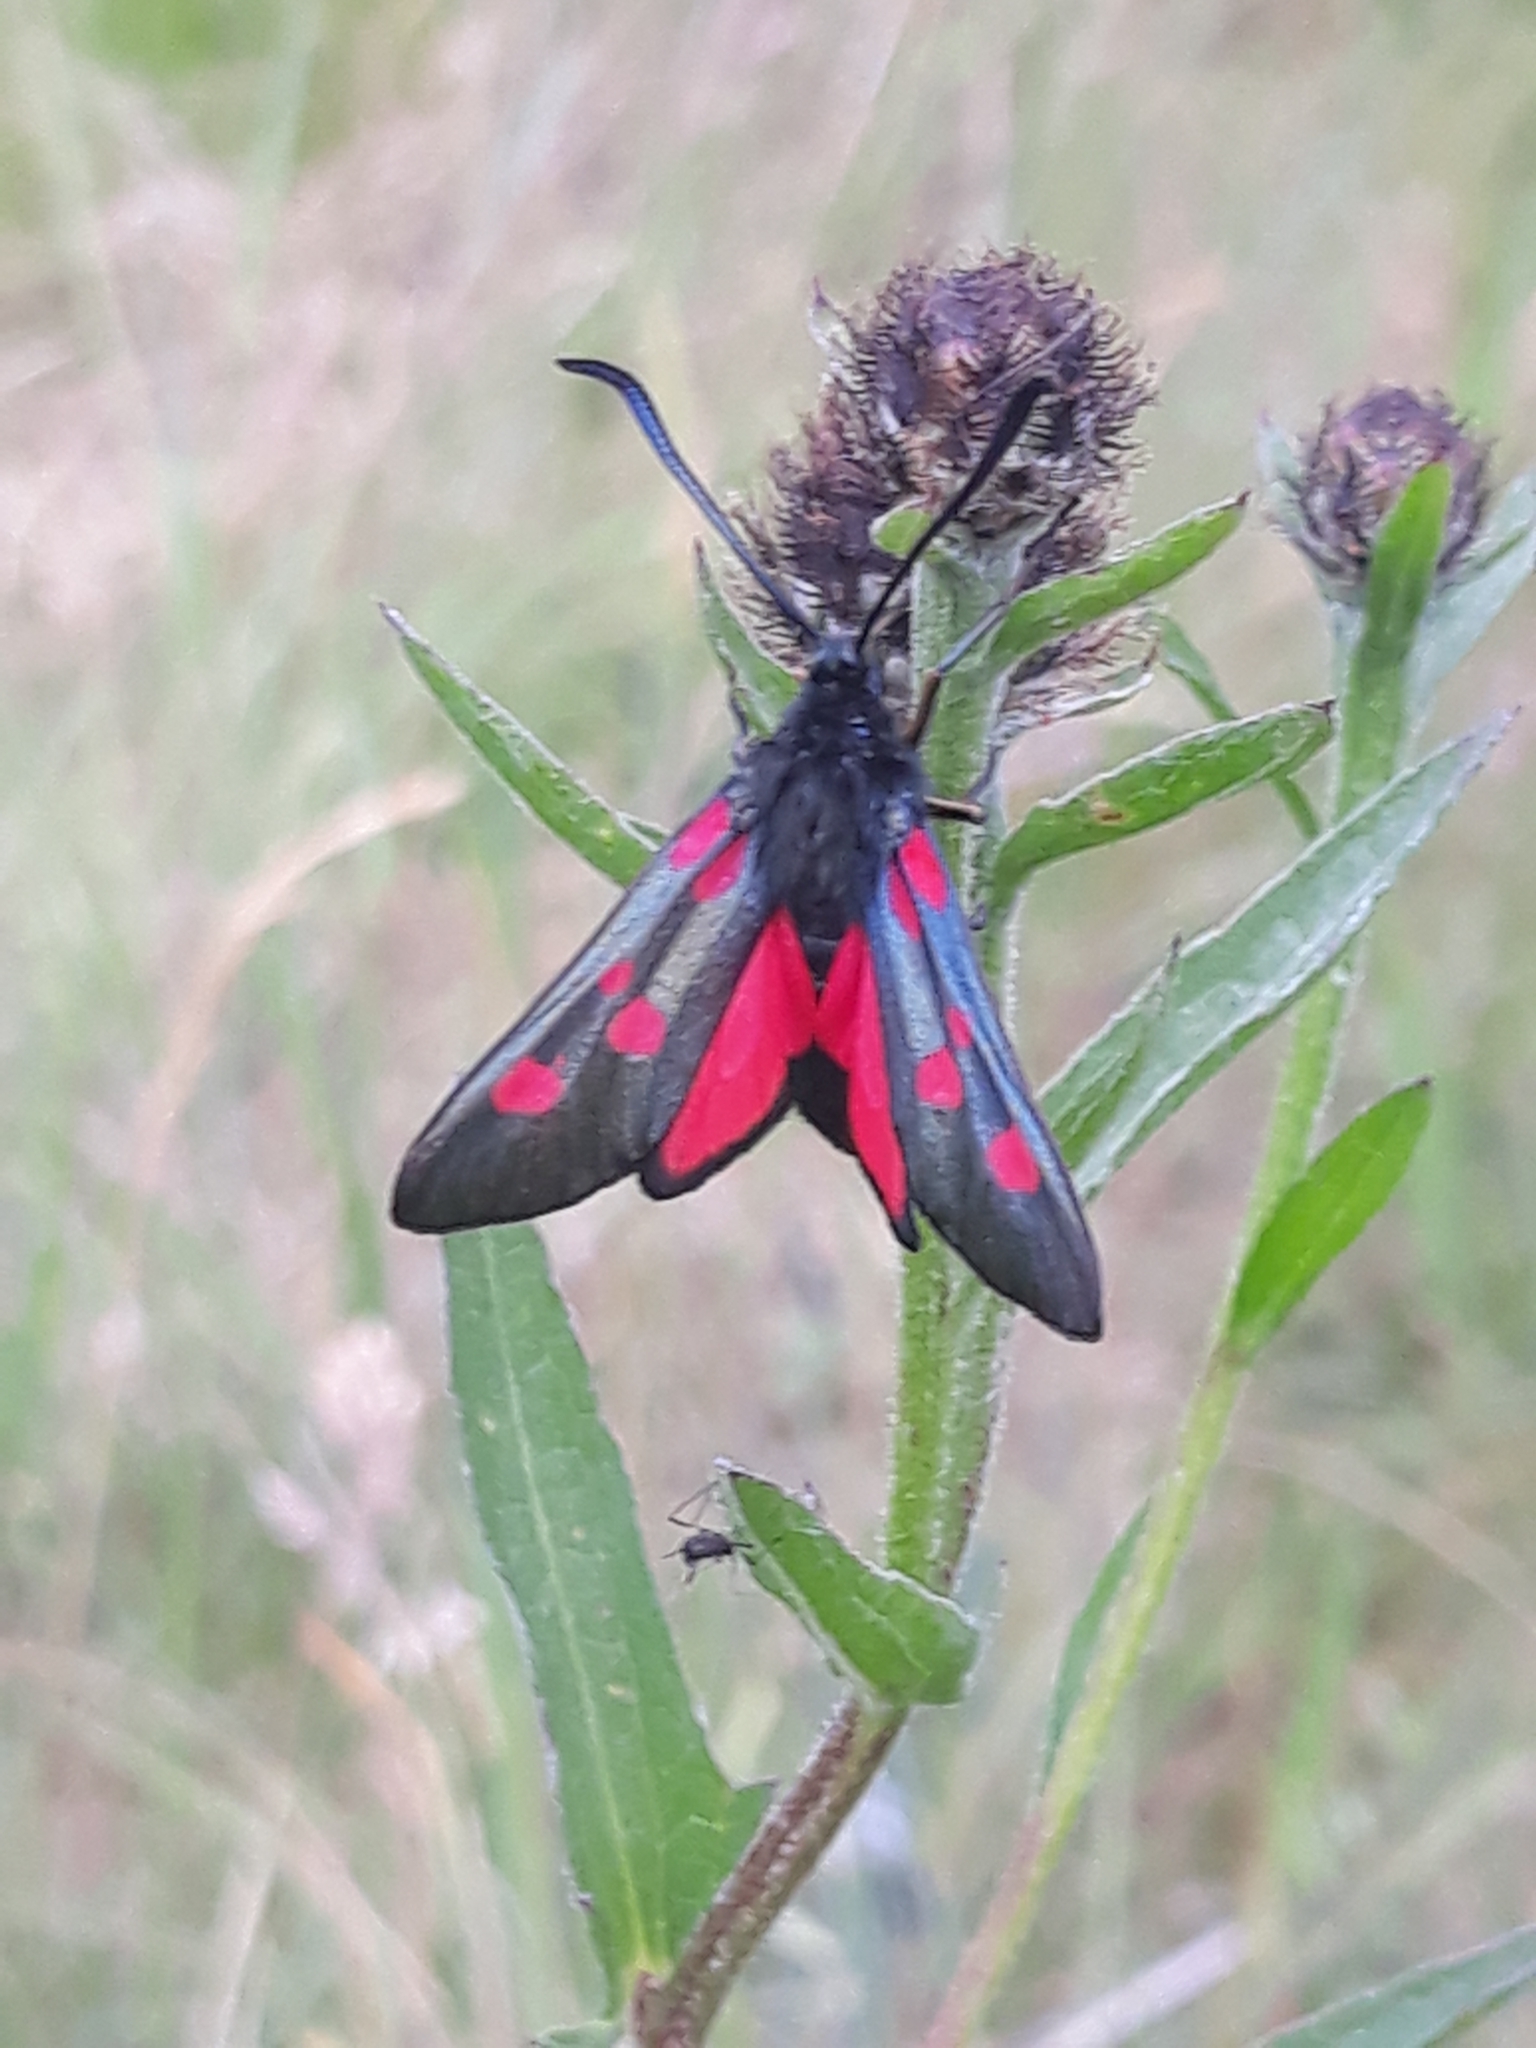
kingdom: Animalia
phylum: Arthropoda
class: Insecta
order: Lepidoptera
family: Zygaenidae
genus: Zygaena
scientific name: Zygaena lonicerae
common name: Narrow-bordered five-spot burnet
